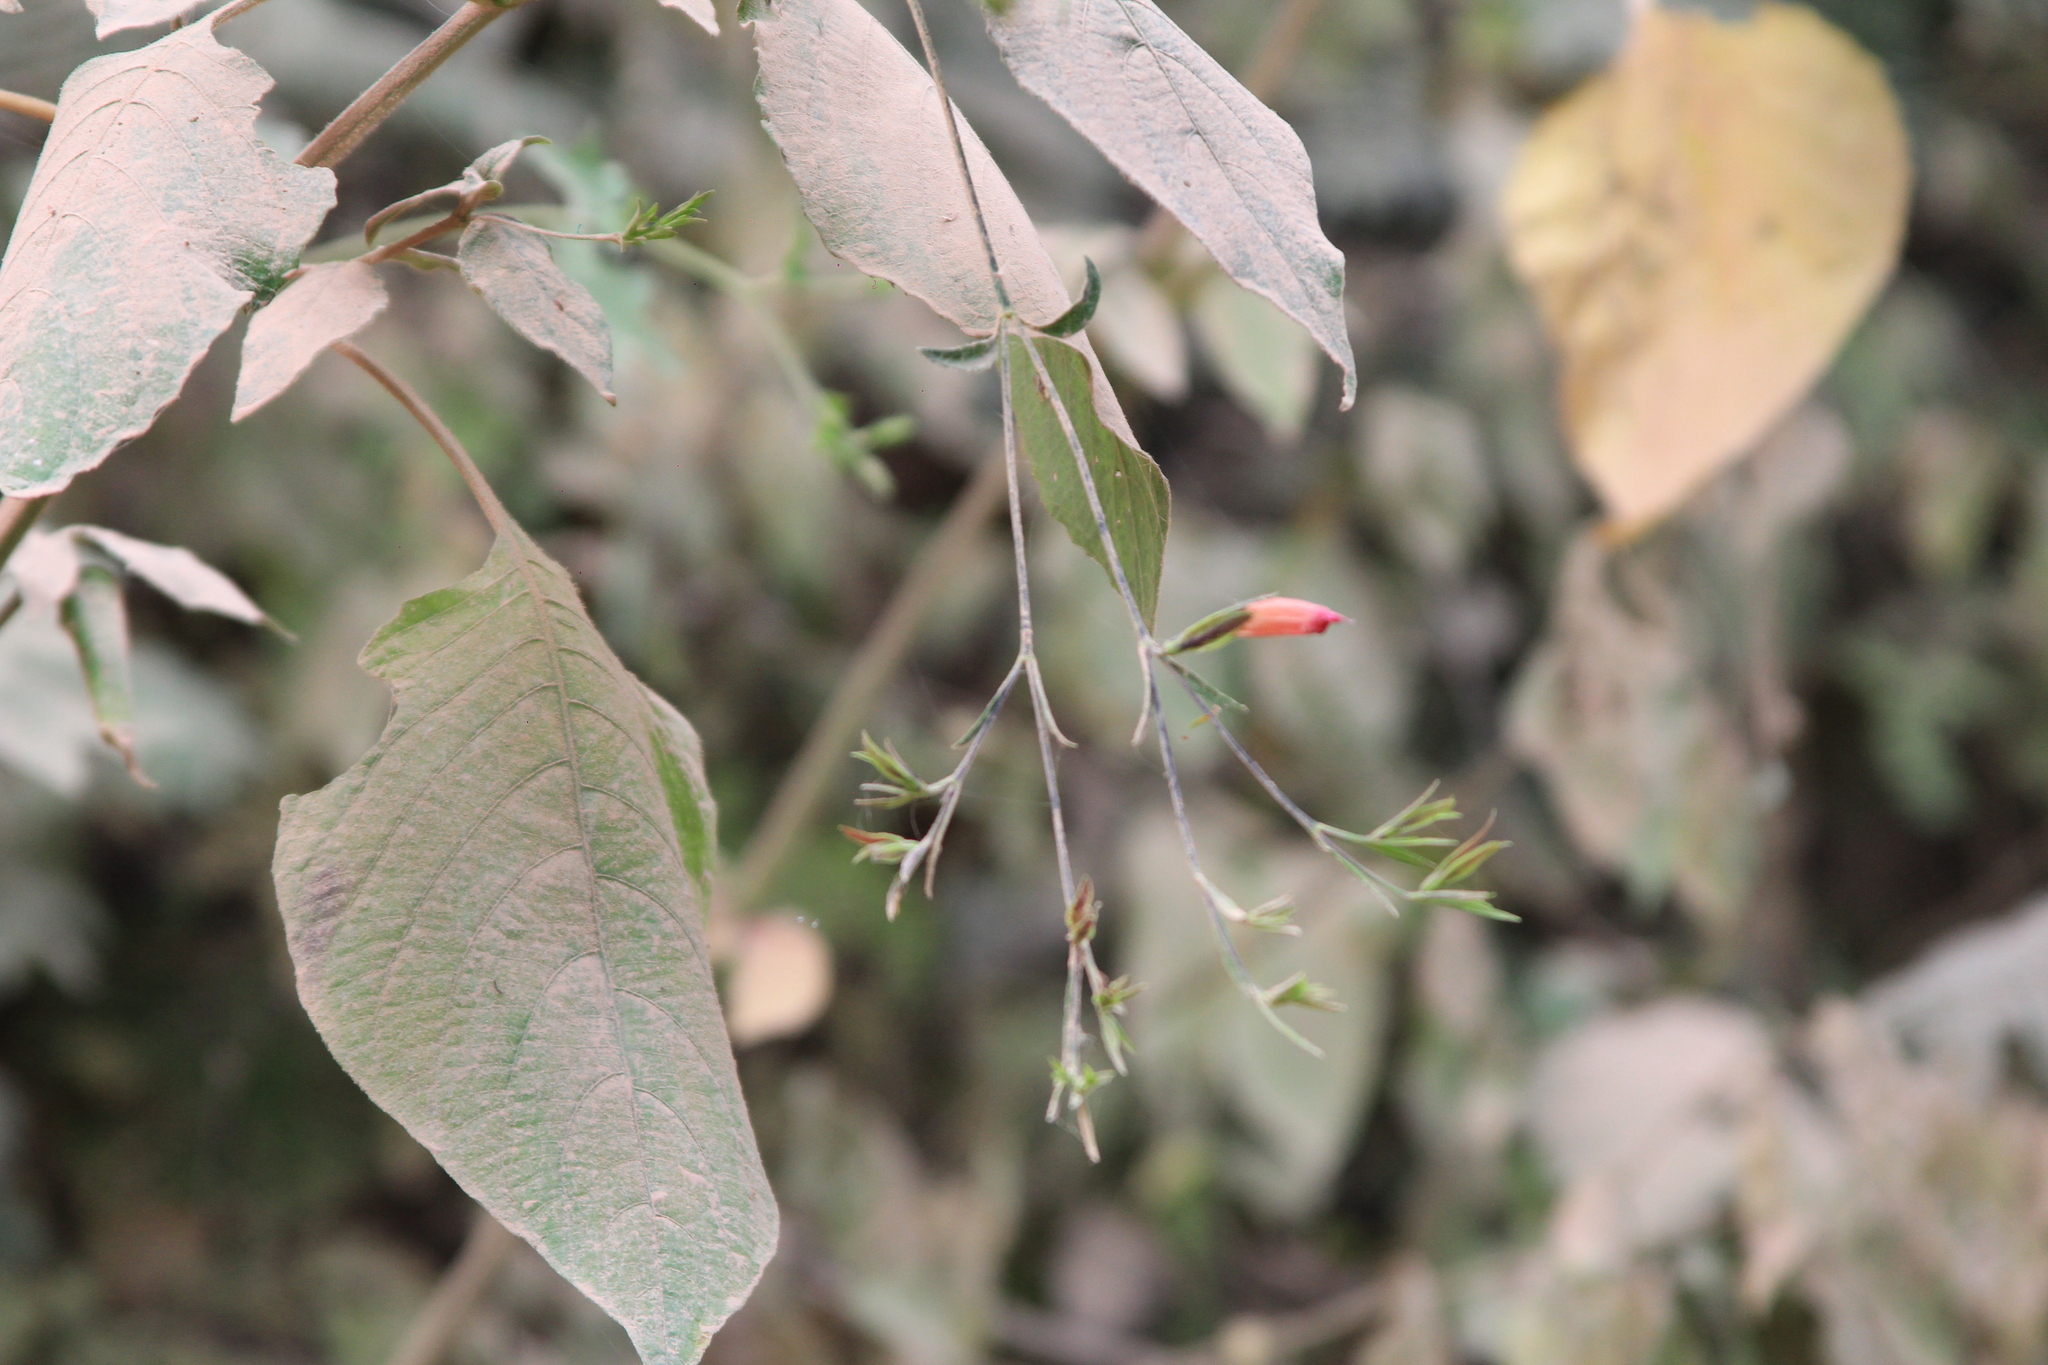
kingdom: Plantae
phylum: Tracheophyta
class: Magnoliopsida
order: Lamiales
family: Acanthaceae
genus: Thyrsacanthus
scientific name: Thyrsacanthus boliviensis
